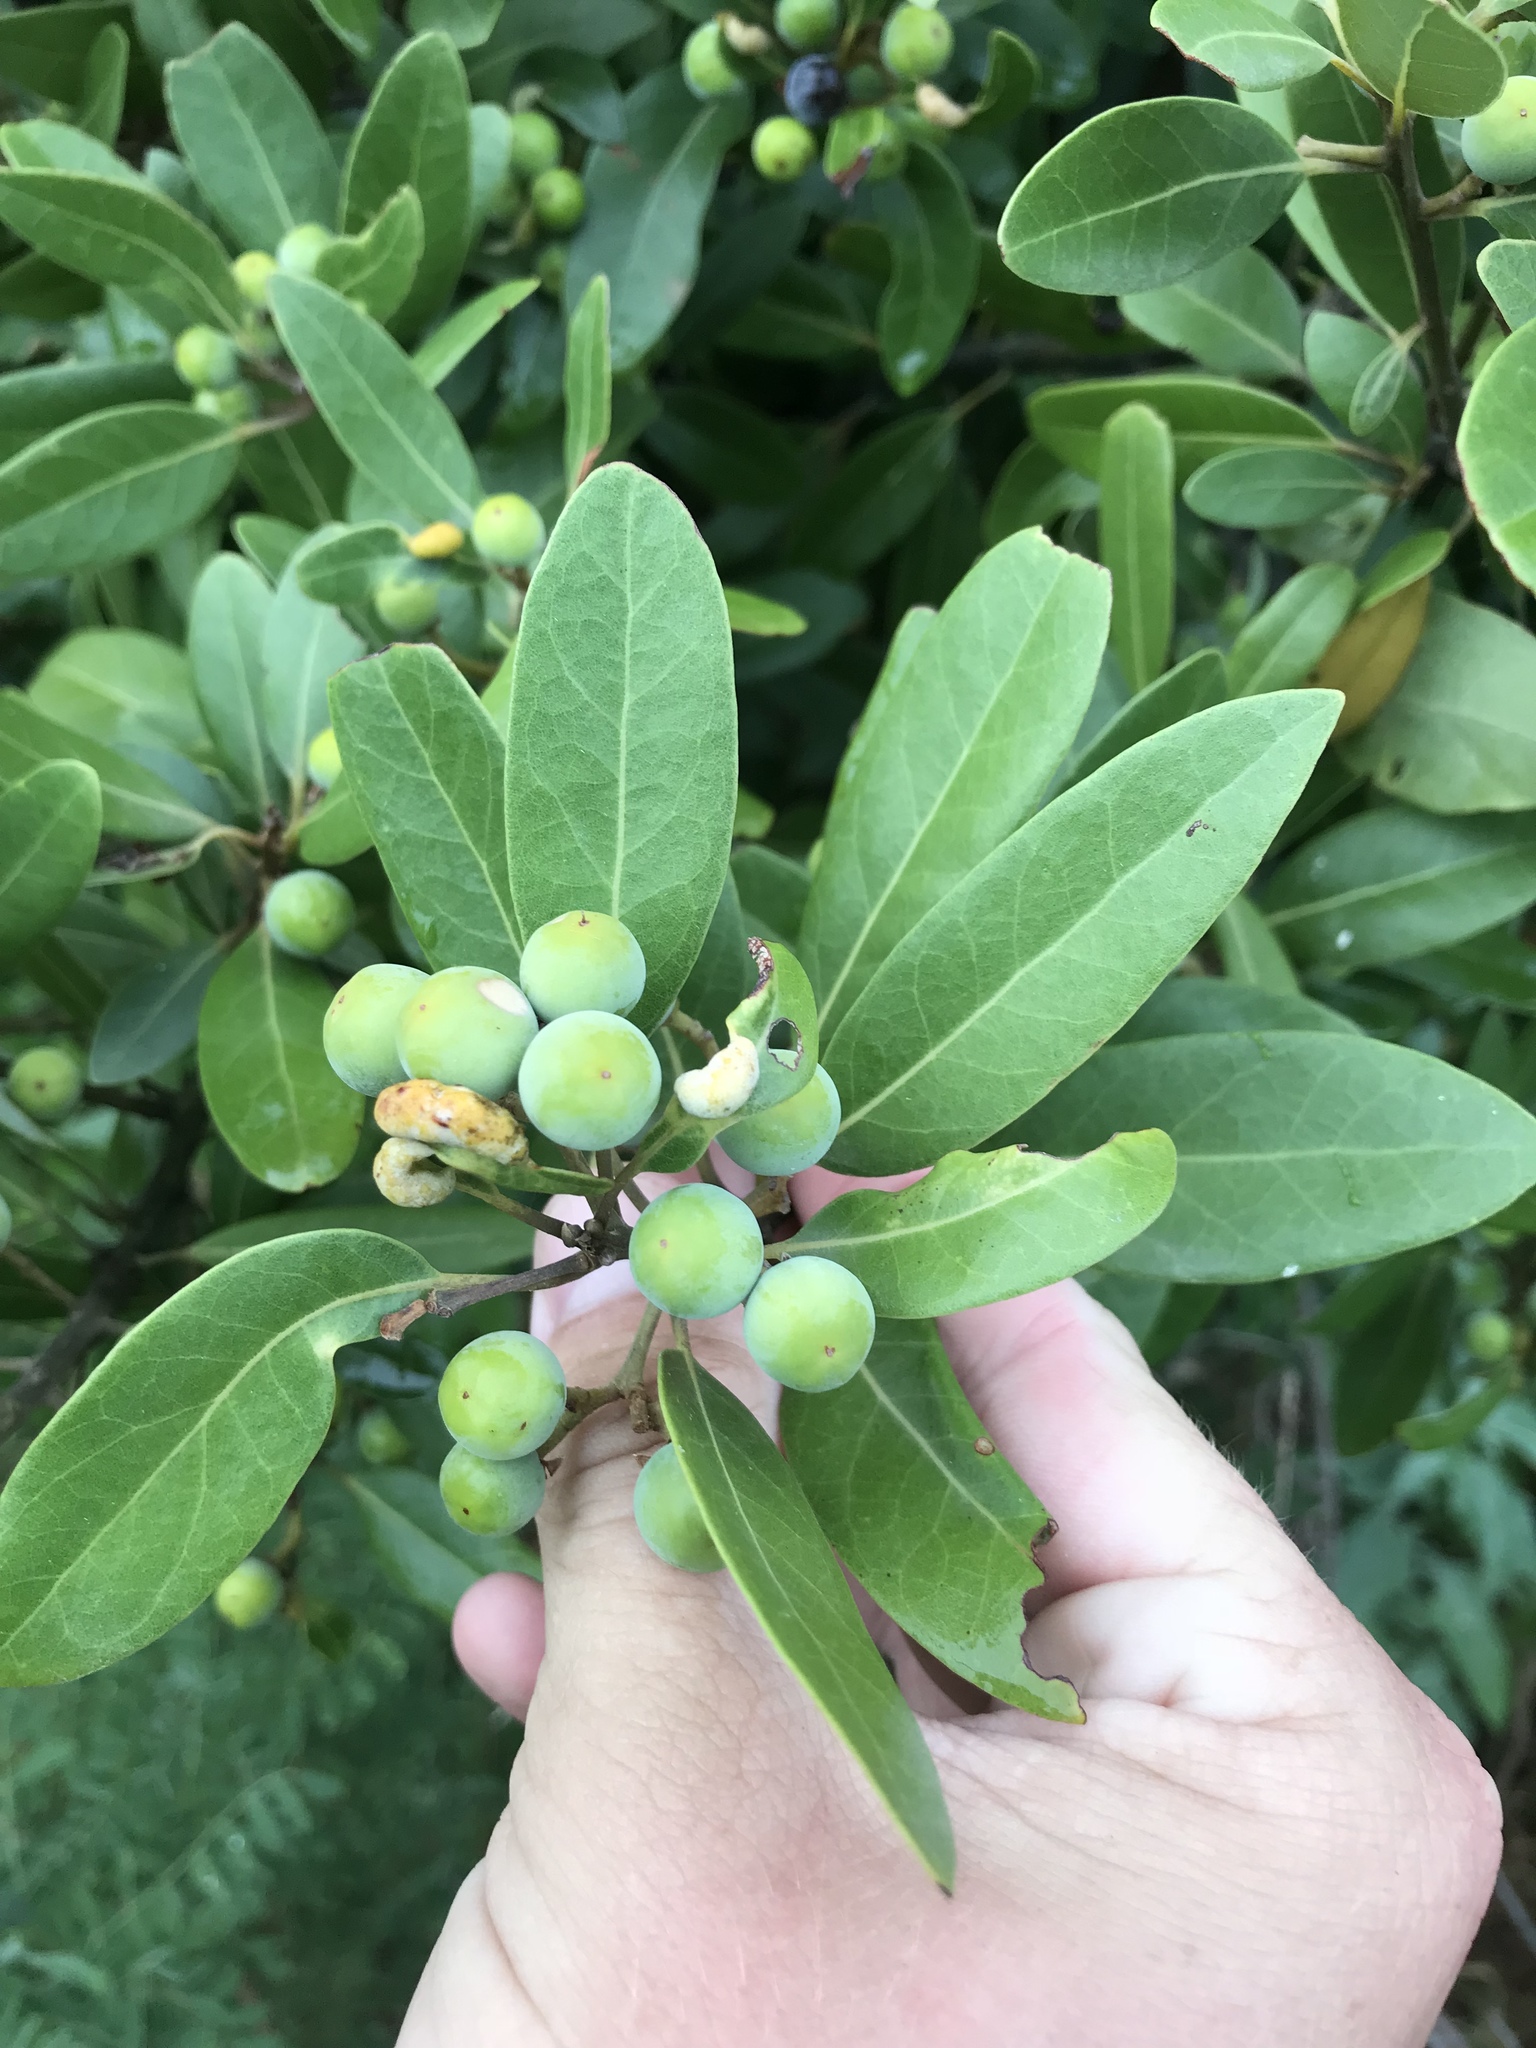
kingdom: Plantae
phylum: Tracheophyta
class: Magnoliopsida
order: Laurales
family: Lauraceae
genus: Persea
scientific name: Persea borbonia
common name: Redbay
